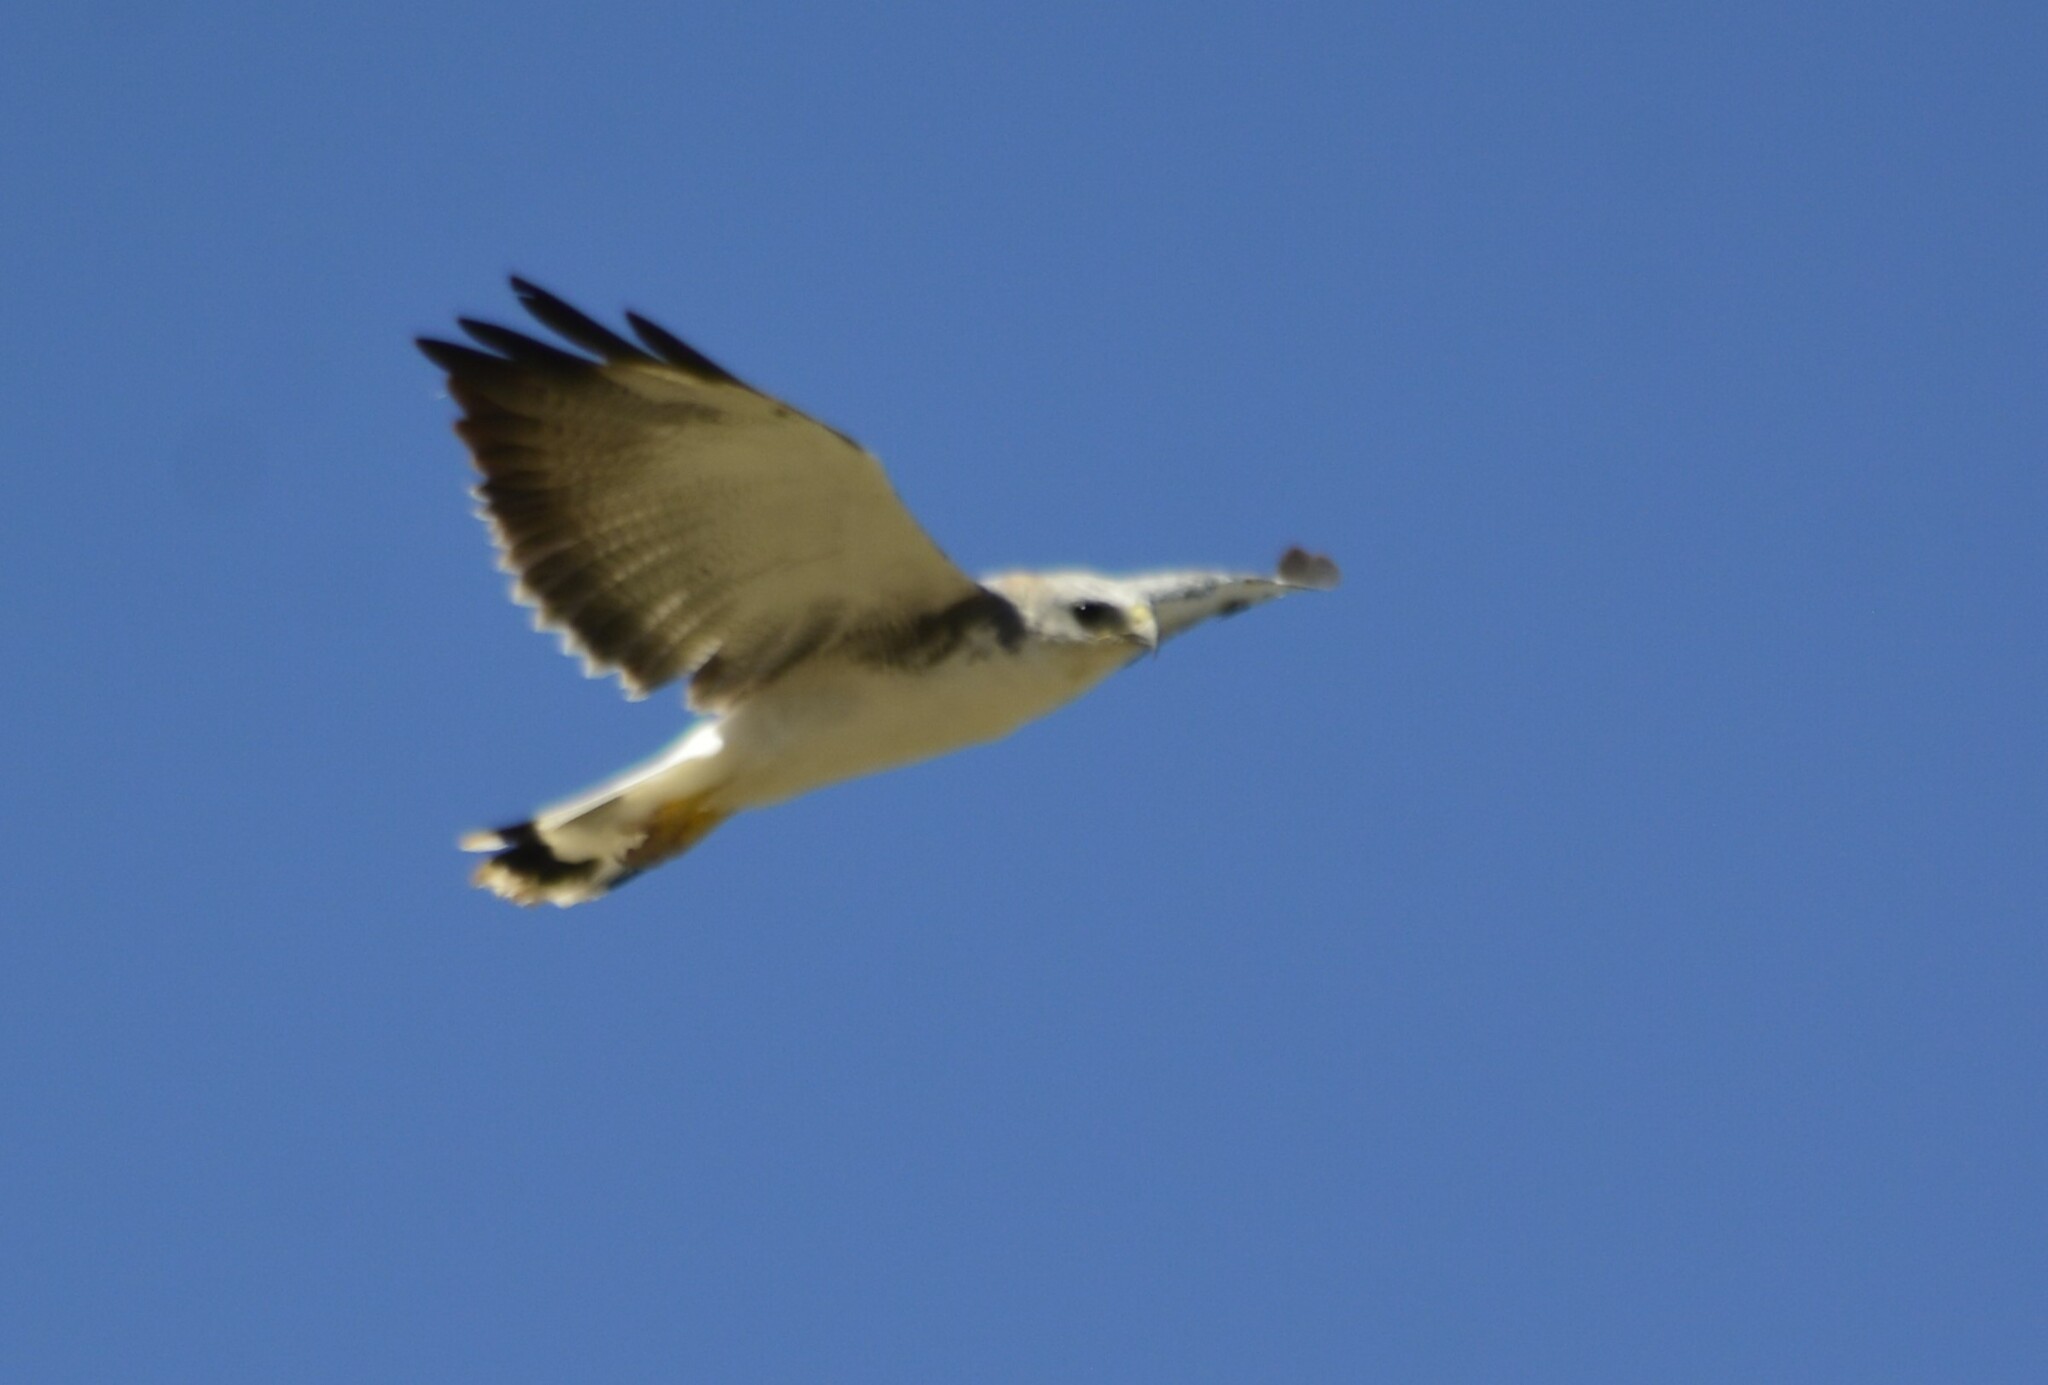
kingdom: Animalia
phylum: Chordata
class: Aves
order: Accipitriformes
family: Accipitridae
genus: Buteo
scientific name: Buteo polyosoma
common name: Variable hawk
